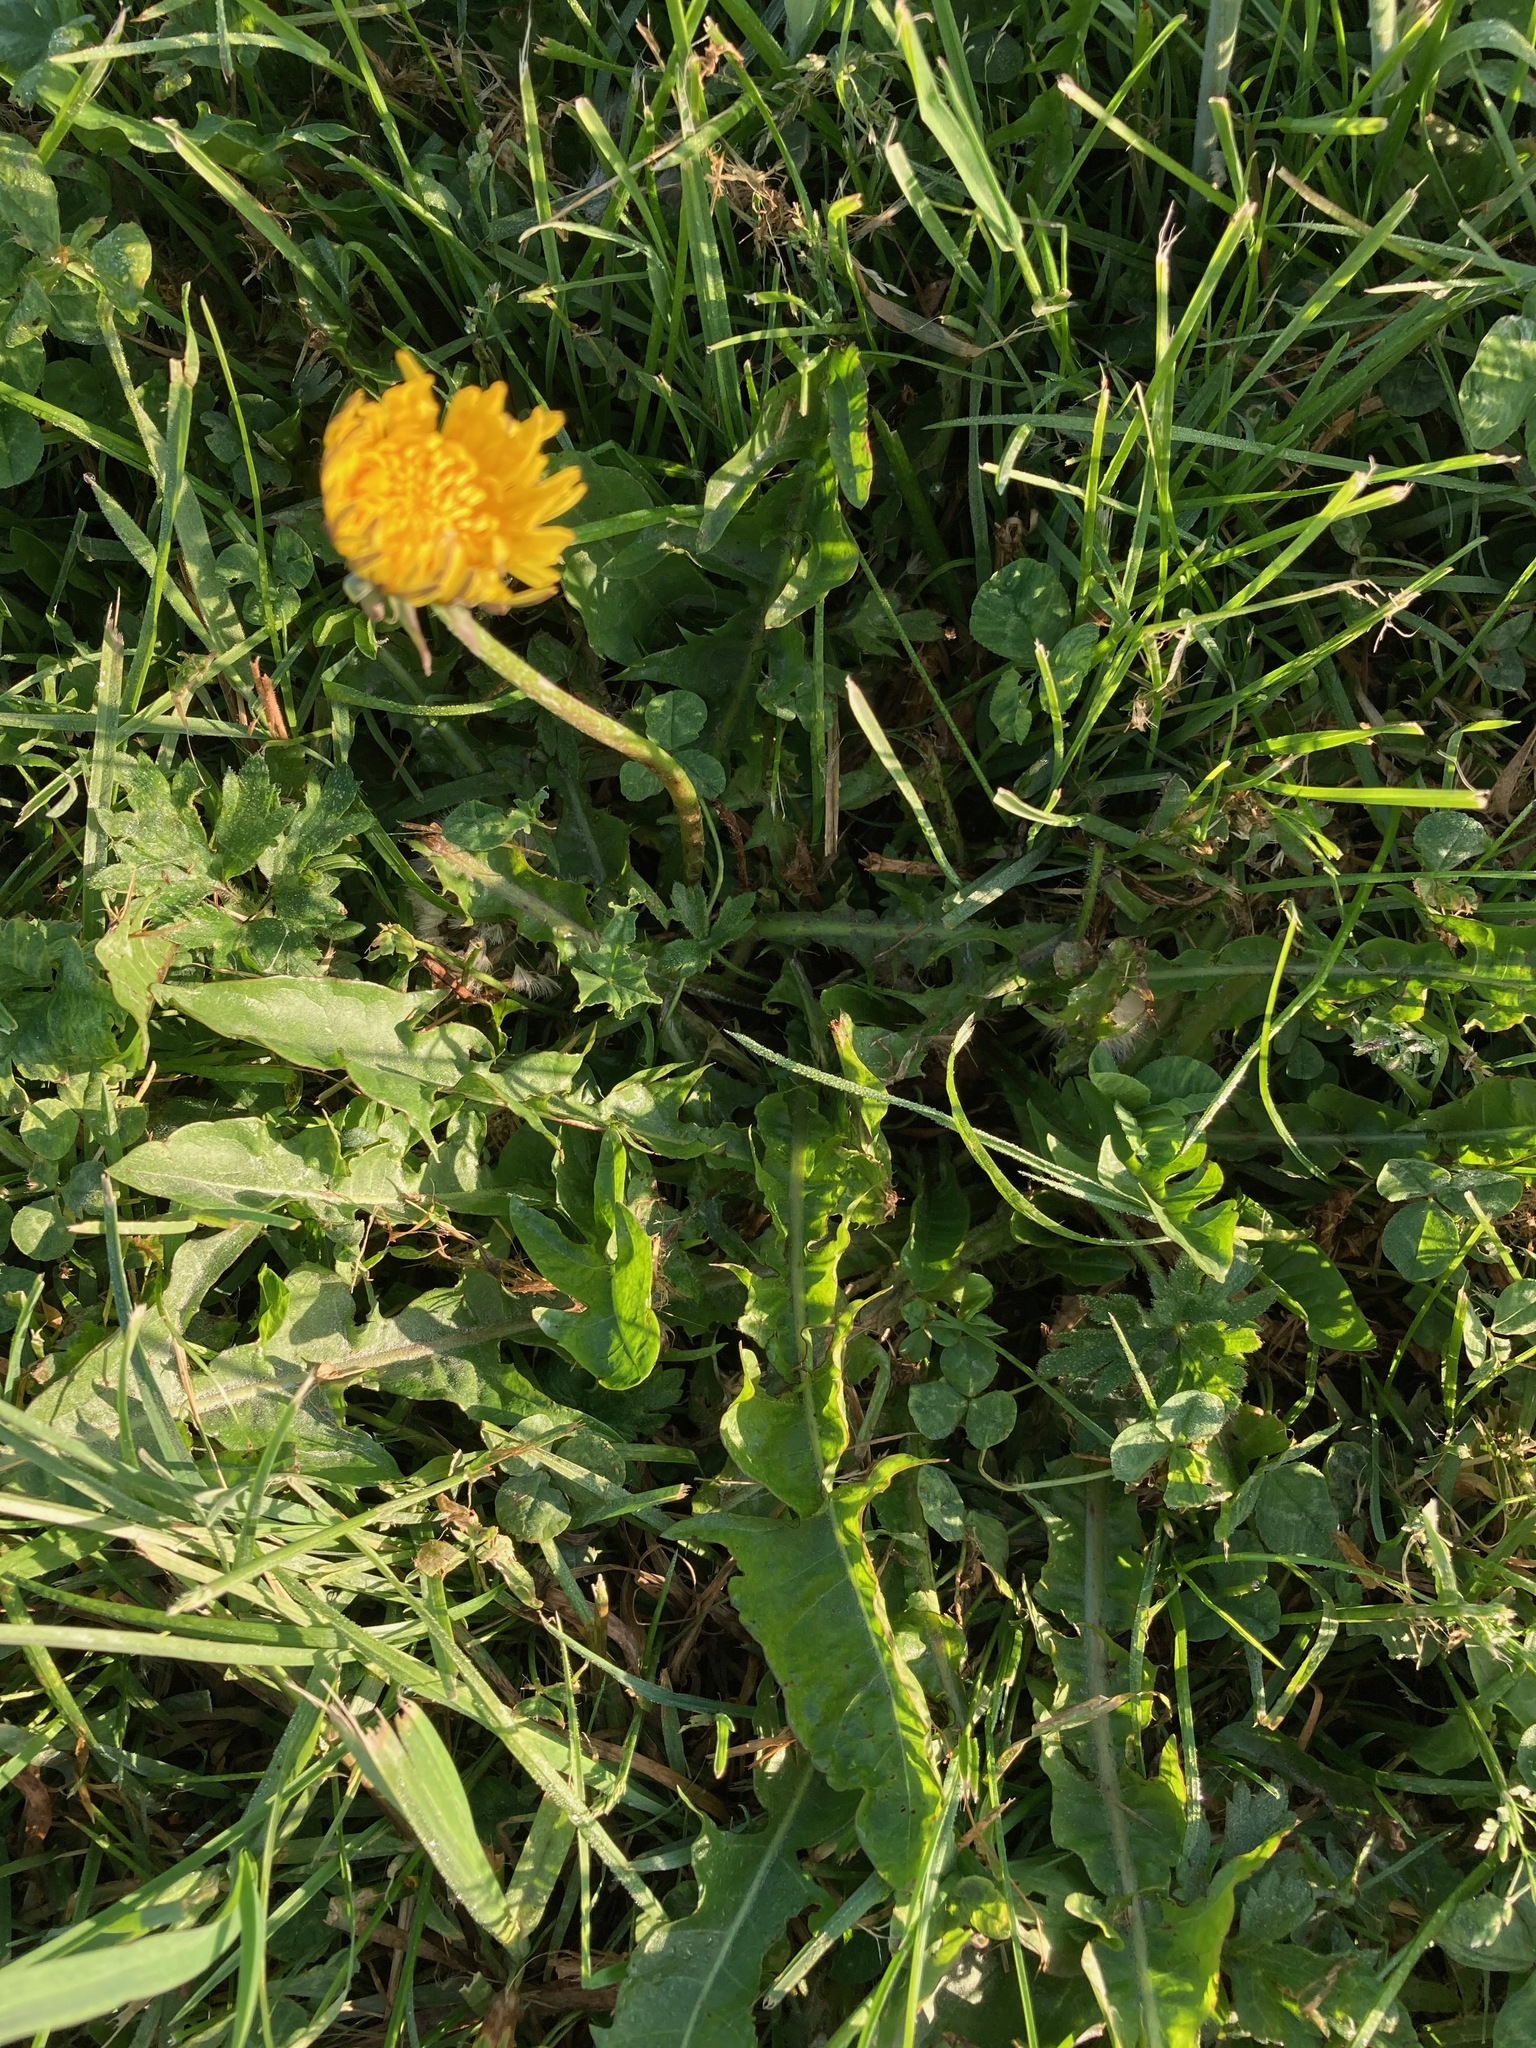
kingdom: Plantae
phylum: Tracheophyta
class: Magnoliopsida
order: Asterales
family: Asteraceae
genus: Taraxacum
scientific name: Taraxacum officinale
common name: Common dandelion
